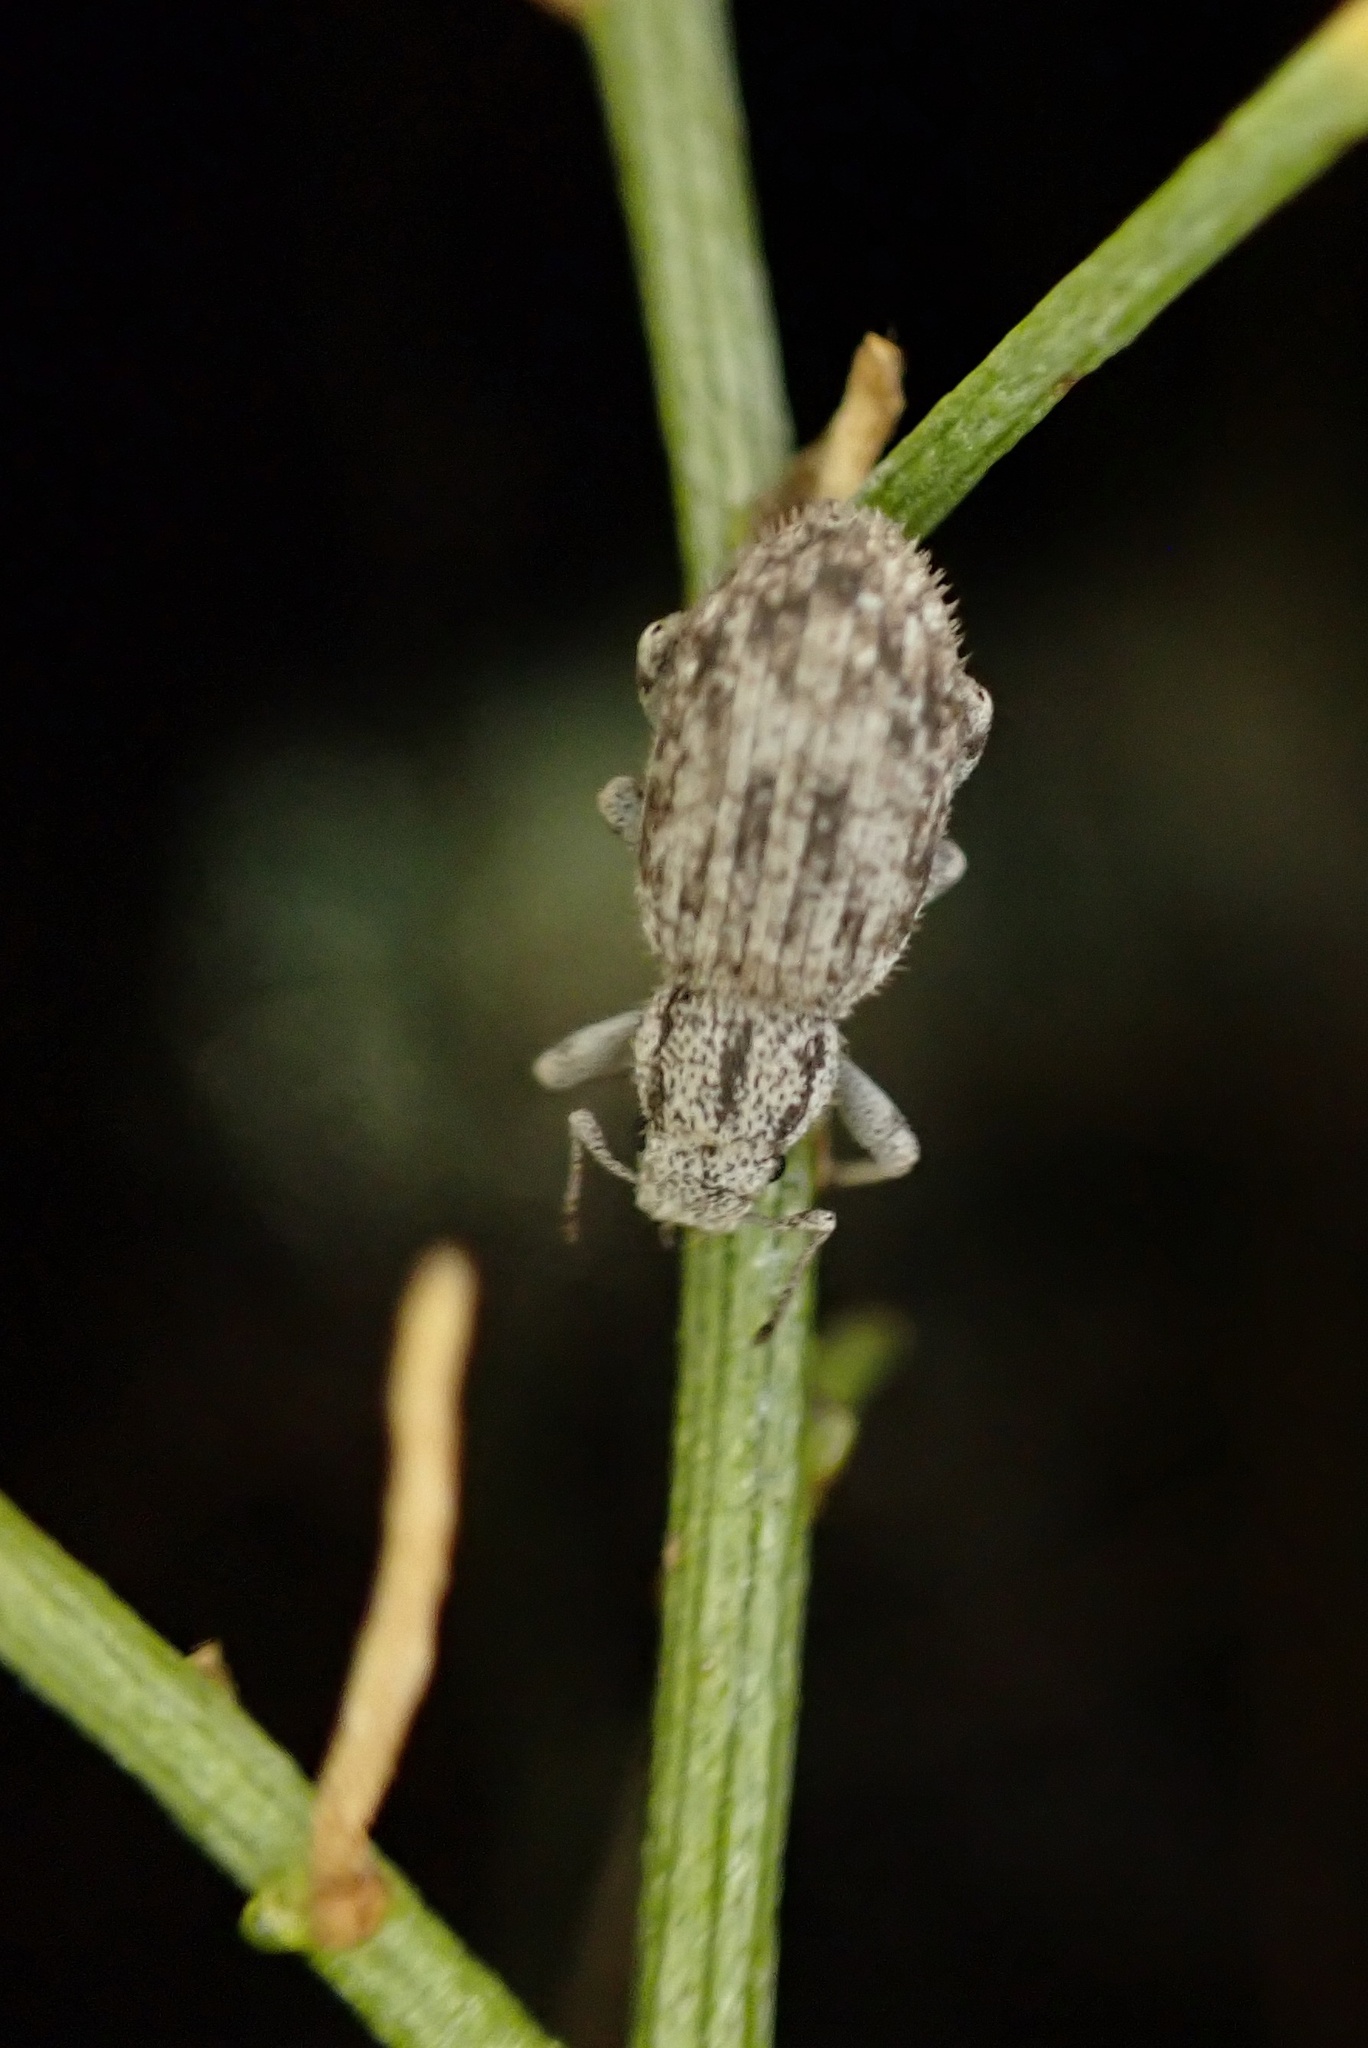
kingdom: Animalia
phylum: Arthropoda
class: Insecta
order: Coleoptera
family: Curculionidae
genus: Eucyllus
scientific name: Eucyllus vagans
